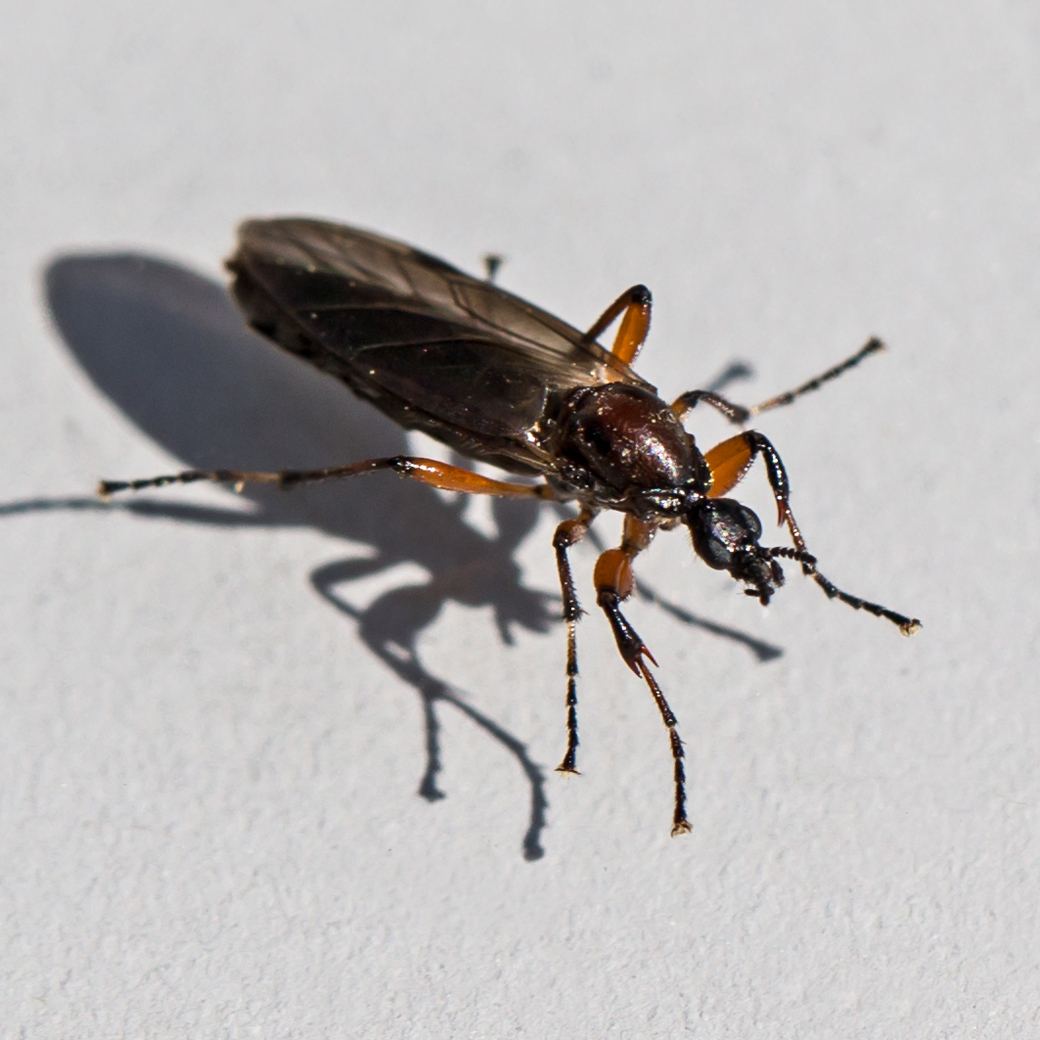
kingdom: Animalia
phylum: Arthropoda
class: Insecta
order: Diptera
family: Bibionidae
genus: Bibio
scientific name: Bibio articulatus
